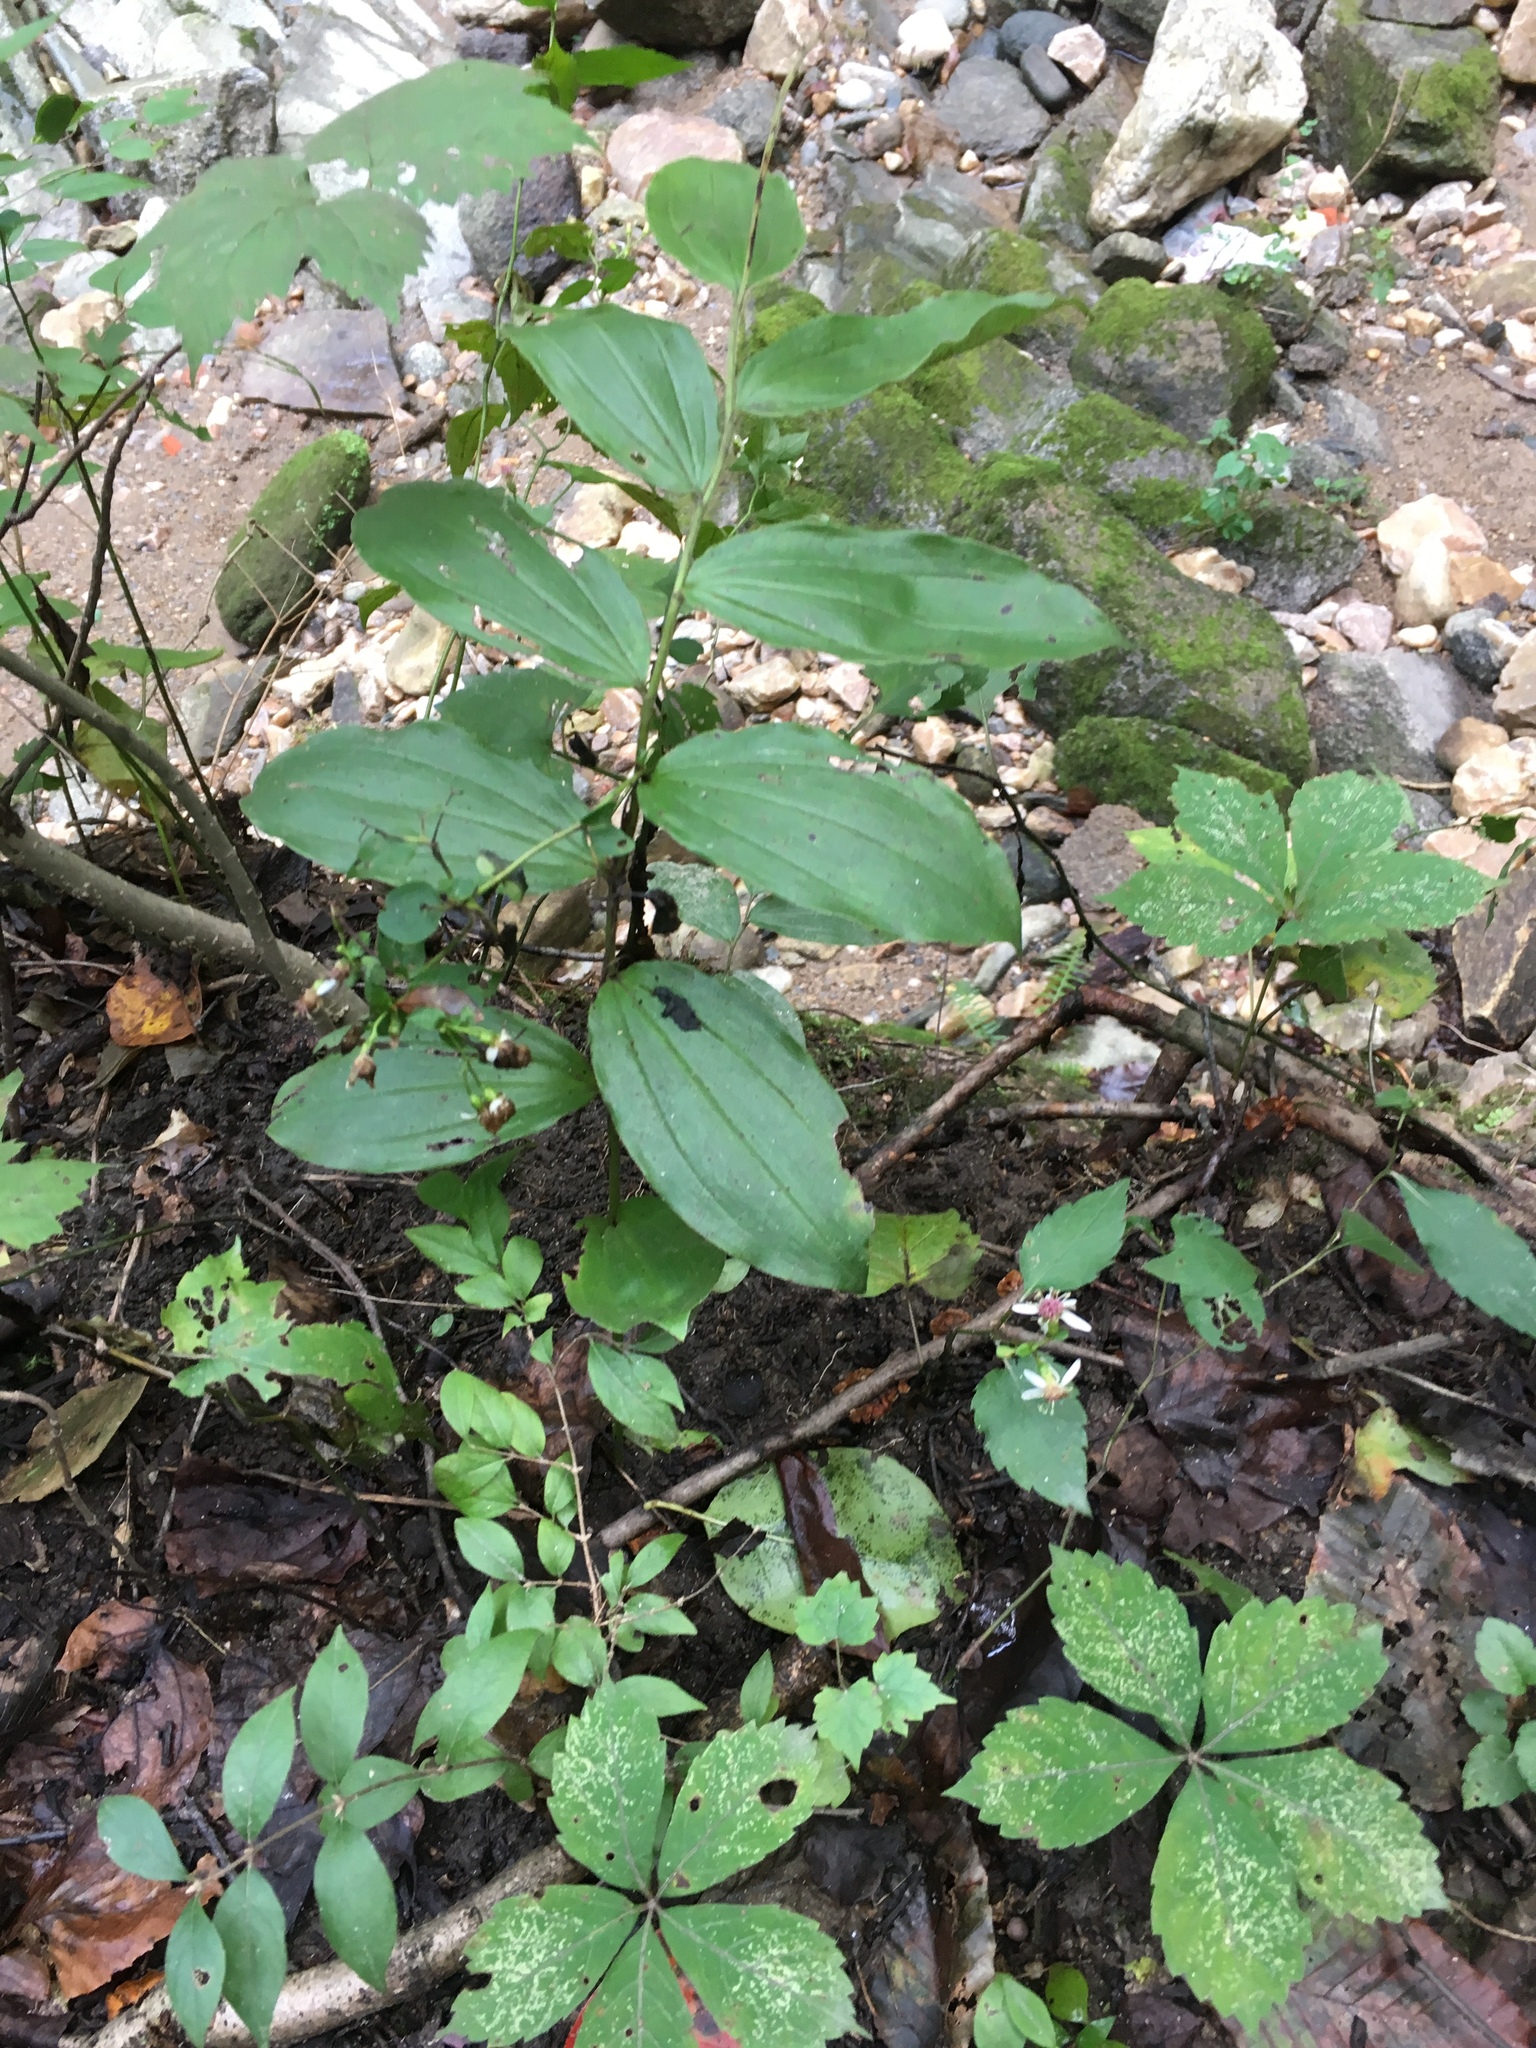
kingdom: Plantae
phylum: Tracheophyta
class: Liliopsida
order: Asparagales
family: Asparagaceae
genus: Maianthemum
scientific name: Maianthemum racemosum
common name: False spikenard
